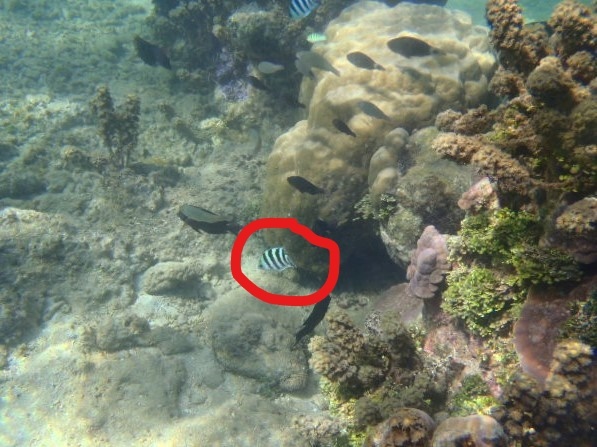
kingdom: Animalia
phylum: Chordata
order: Perciformes
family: Pomacentridae
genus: Abudefduf
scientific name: Abudefduf sexfasciatus
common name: Scissortail sergeant
